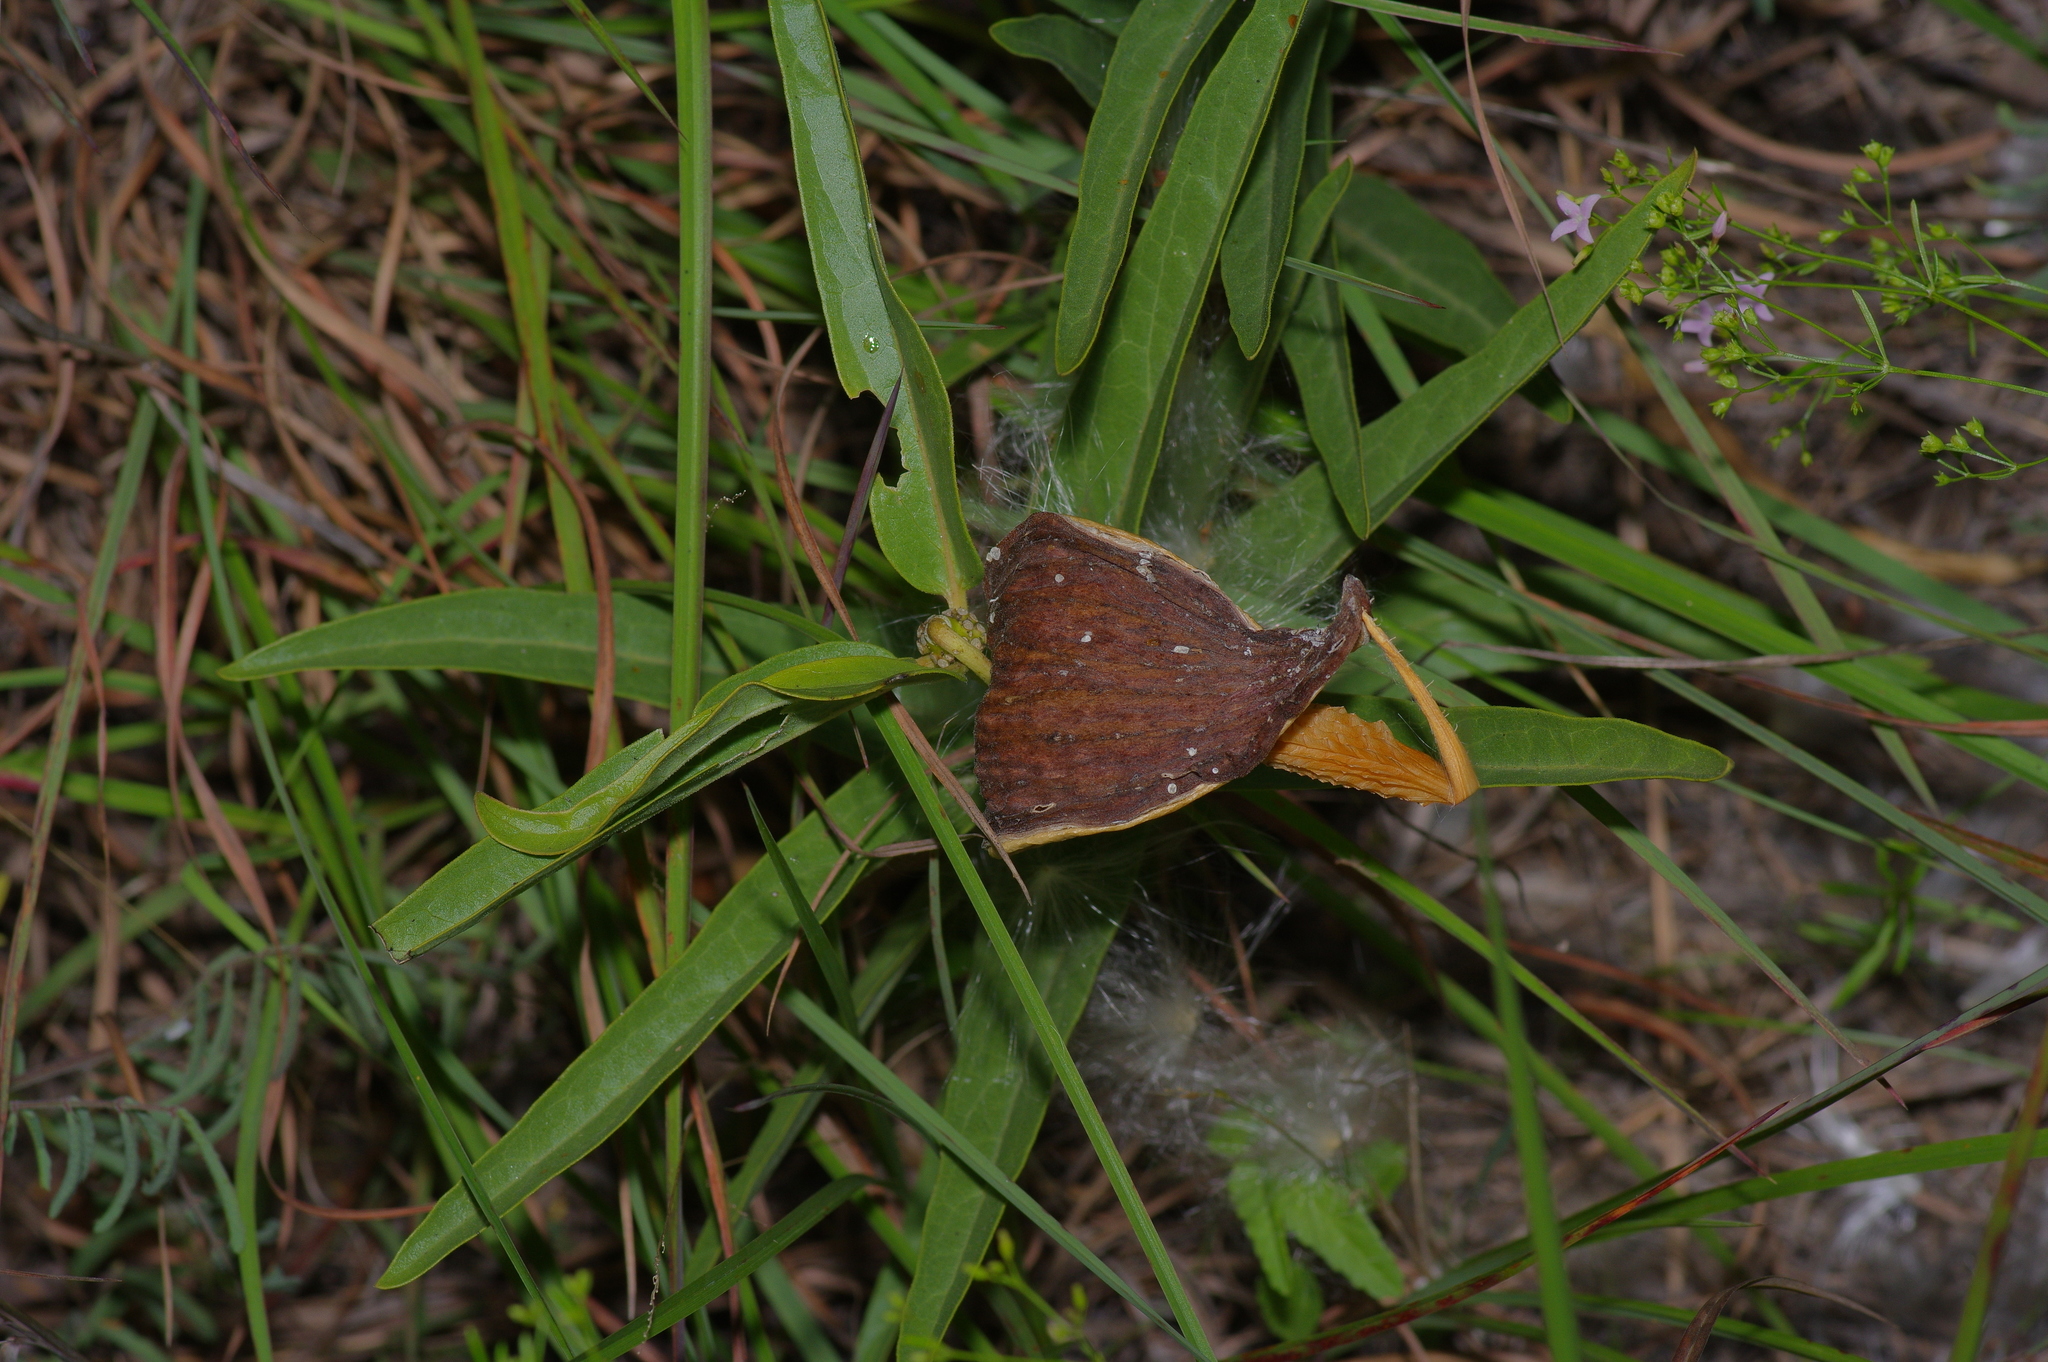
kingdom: Plantae
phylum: Tracheophyta
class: Magnoliopsida
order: Gentianales
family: Apocynaceae
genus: Asclepias
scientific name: Asclepias asperula
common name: Antelope horns
